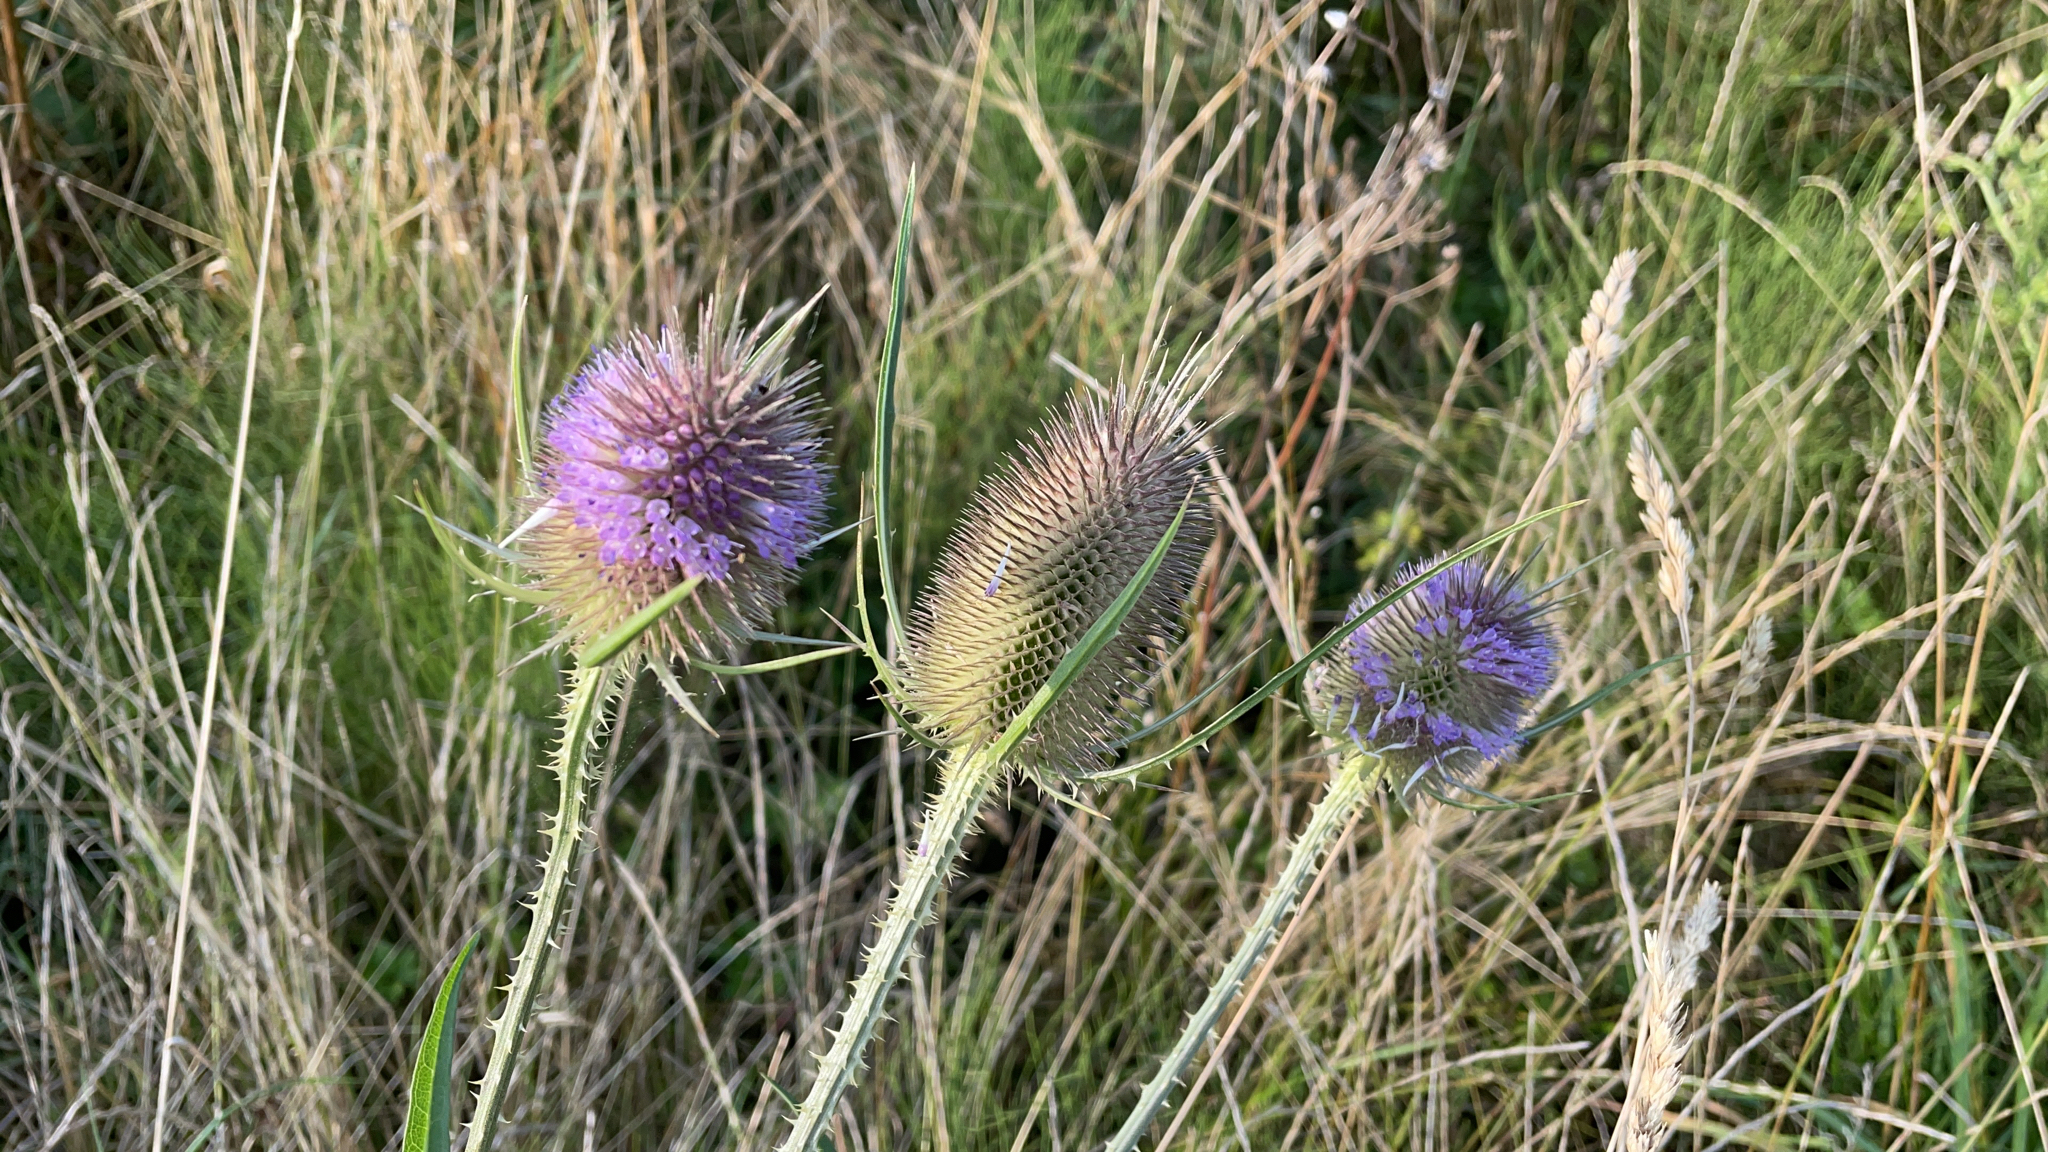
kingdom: Plantae
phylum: Tracheophyta
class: Magnoliopsida
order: Dipsacales
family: Caprifoliaceae
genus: Dipsacus
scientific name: Dipsacus fullonum
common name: Teasel
